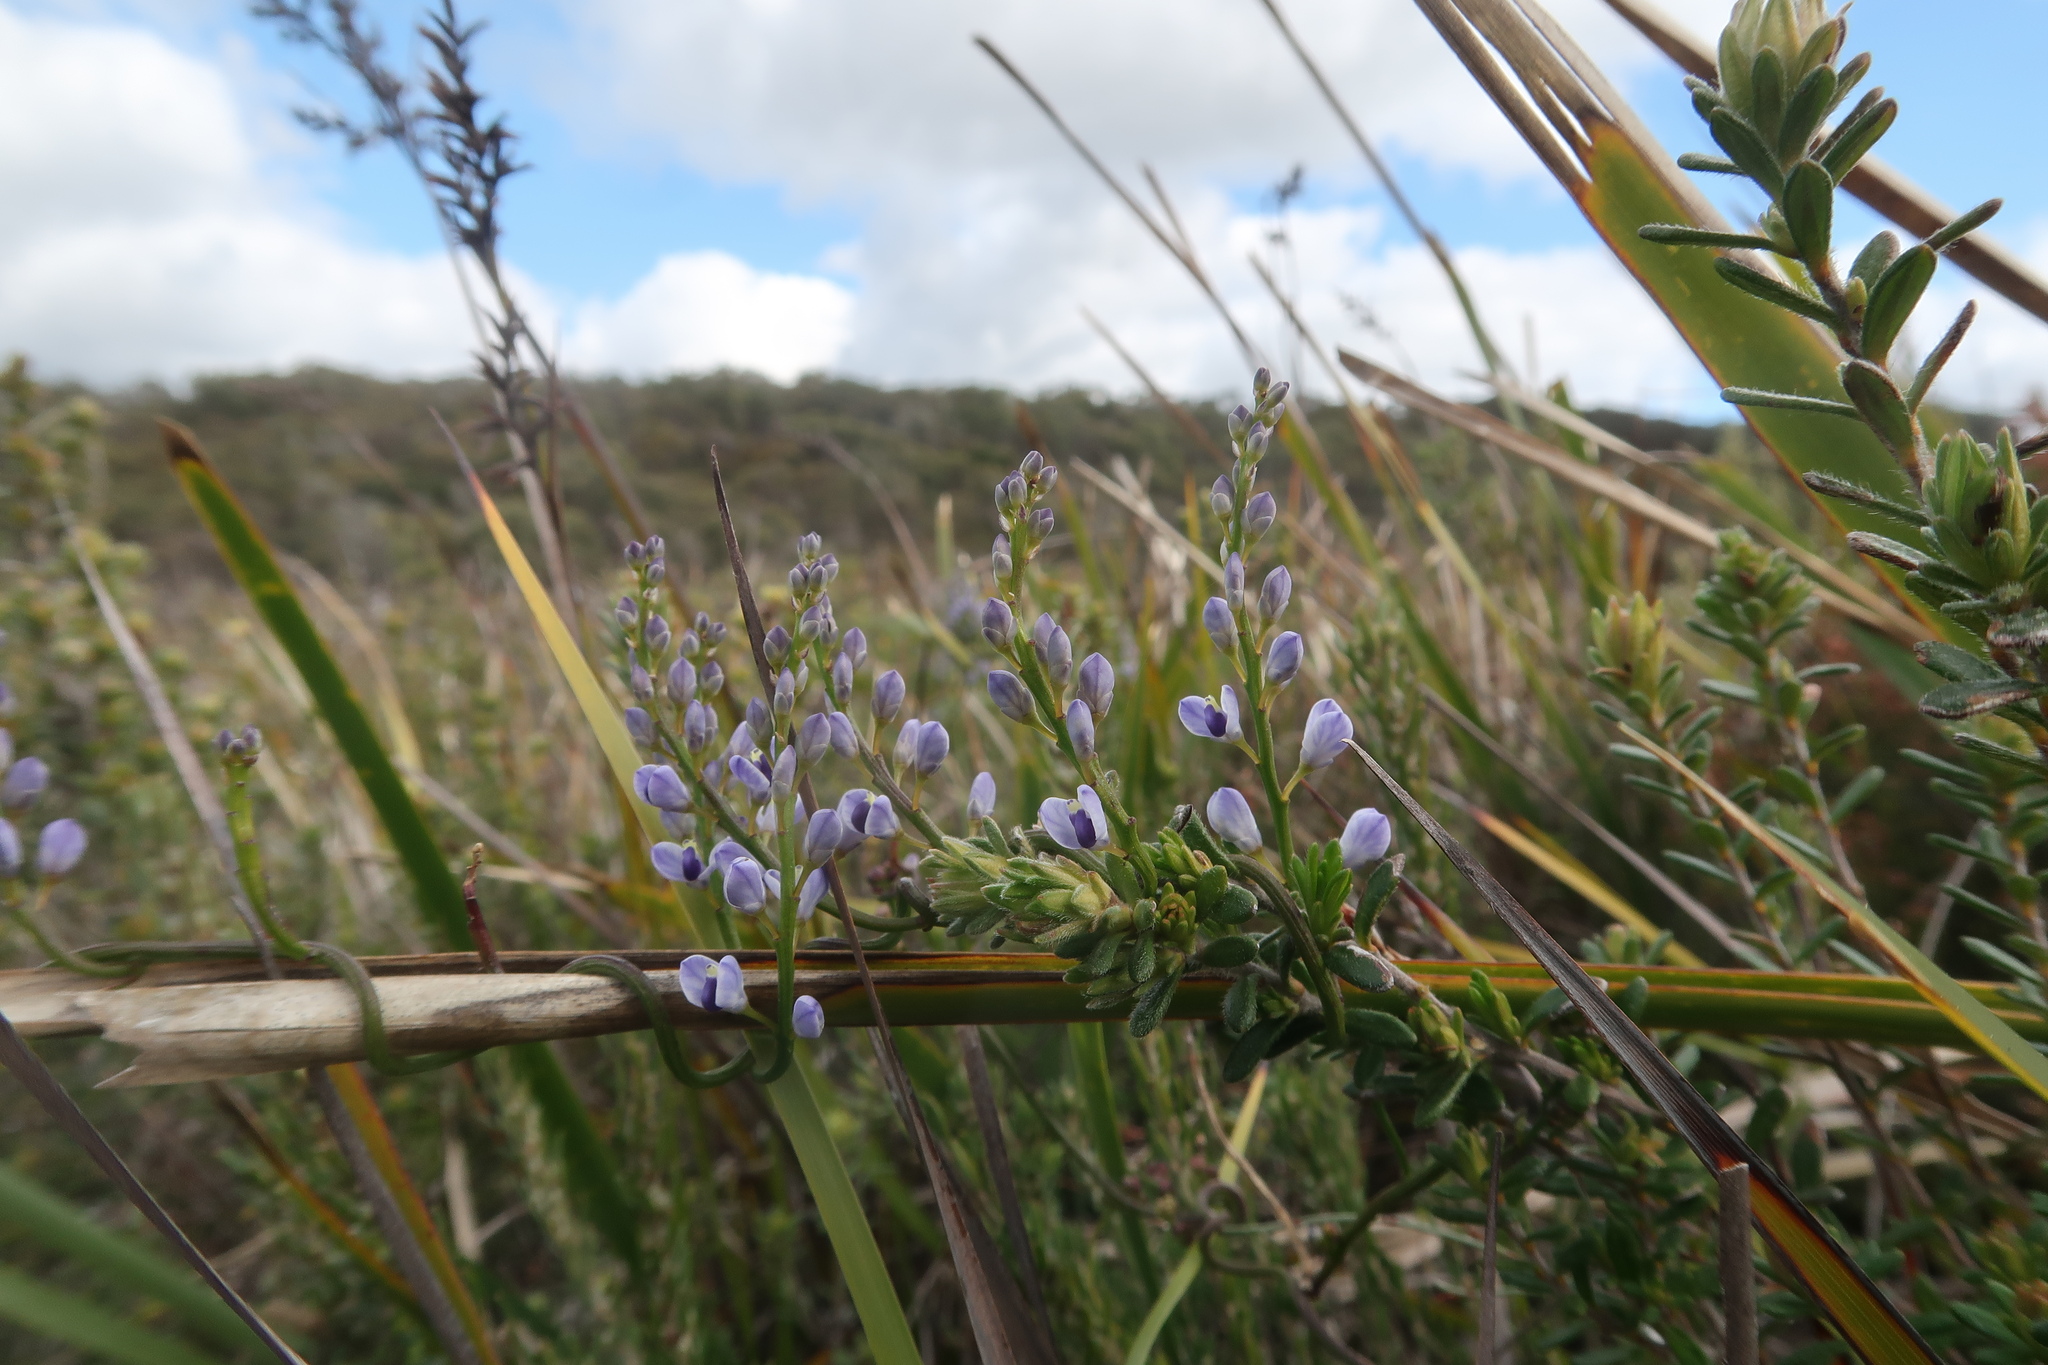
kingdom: Plantae
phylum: Tracheophyta
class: Magnoliopsida
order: Fabales
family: Polygalaceae
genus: Comesperma
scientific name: Comesperma volubile
